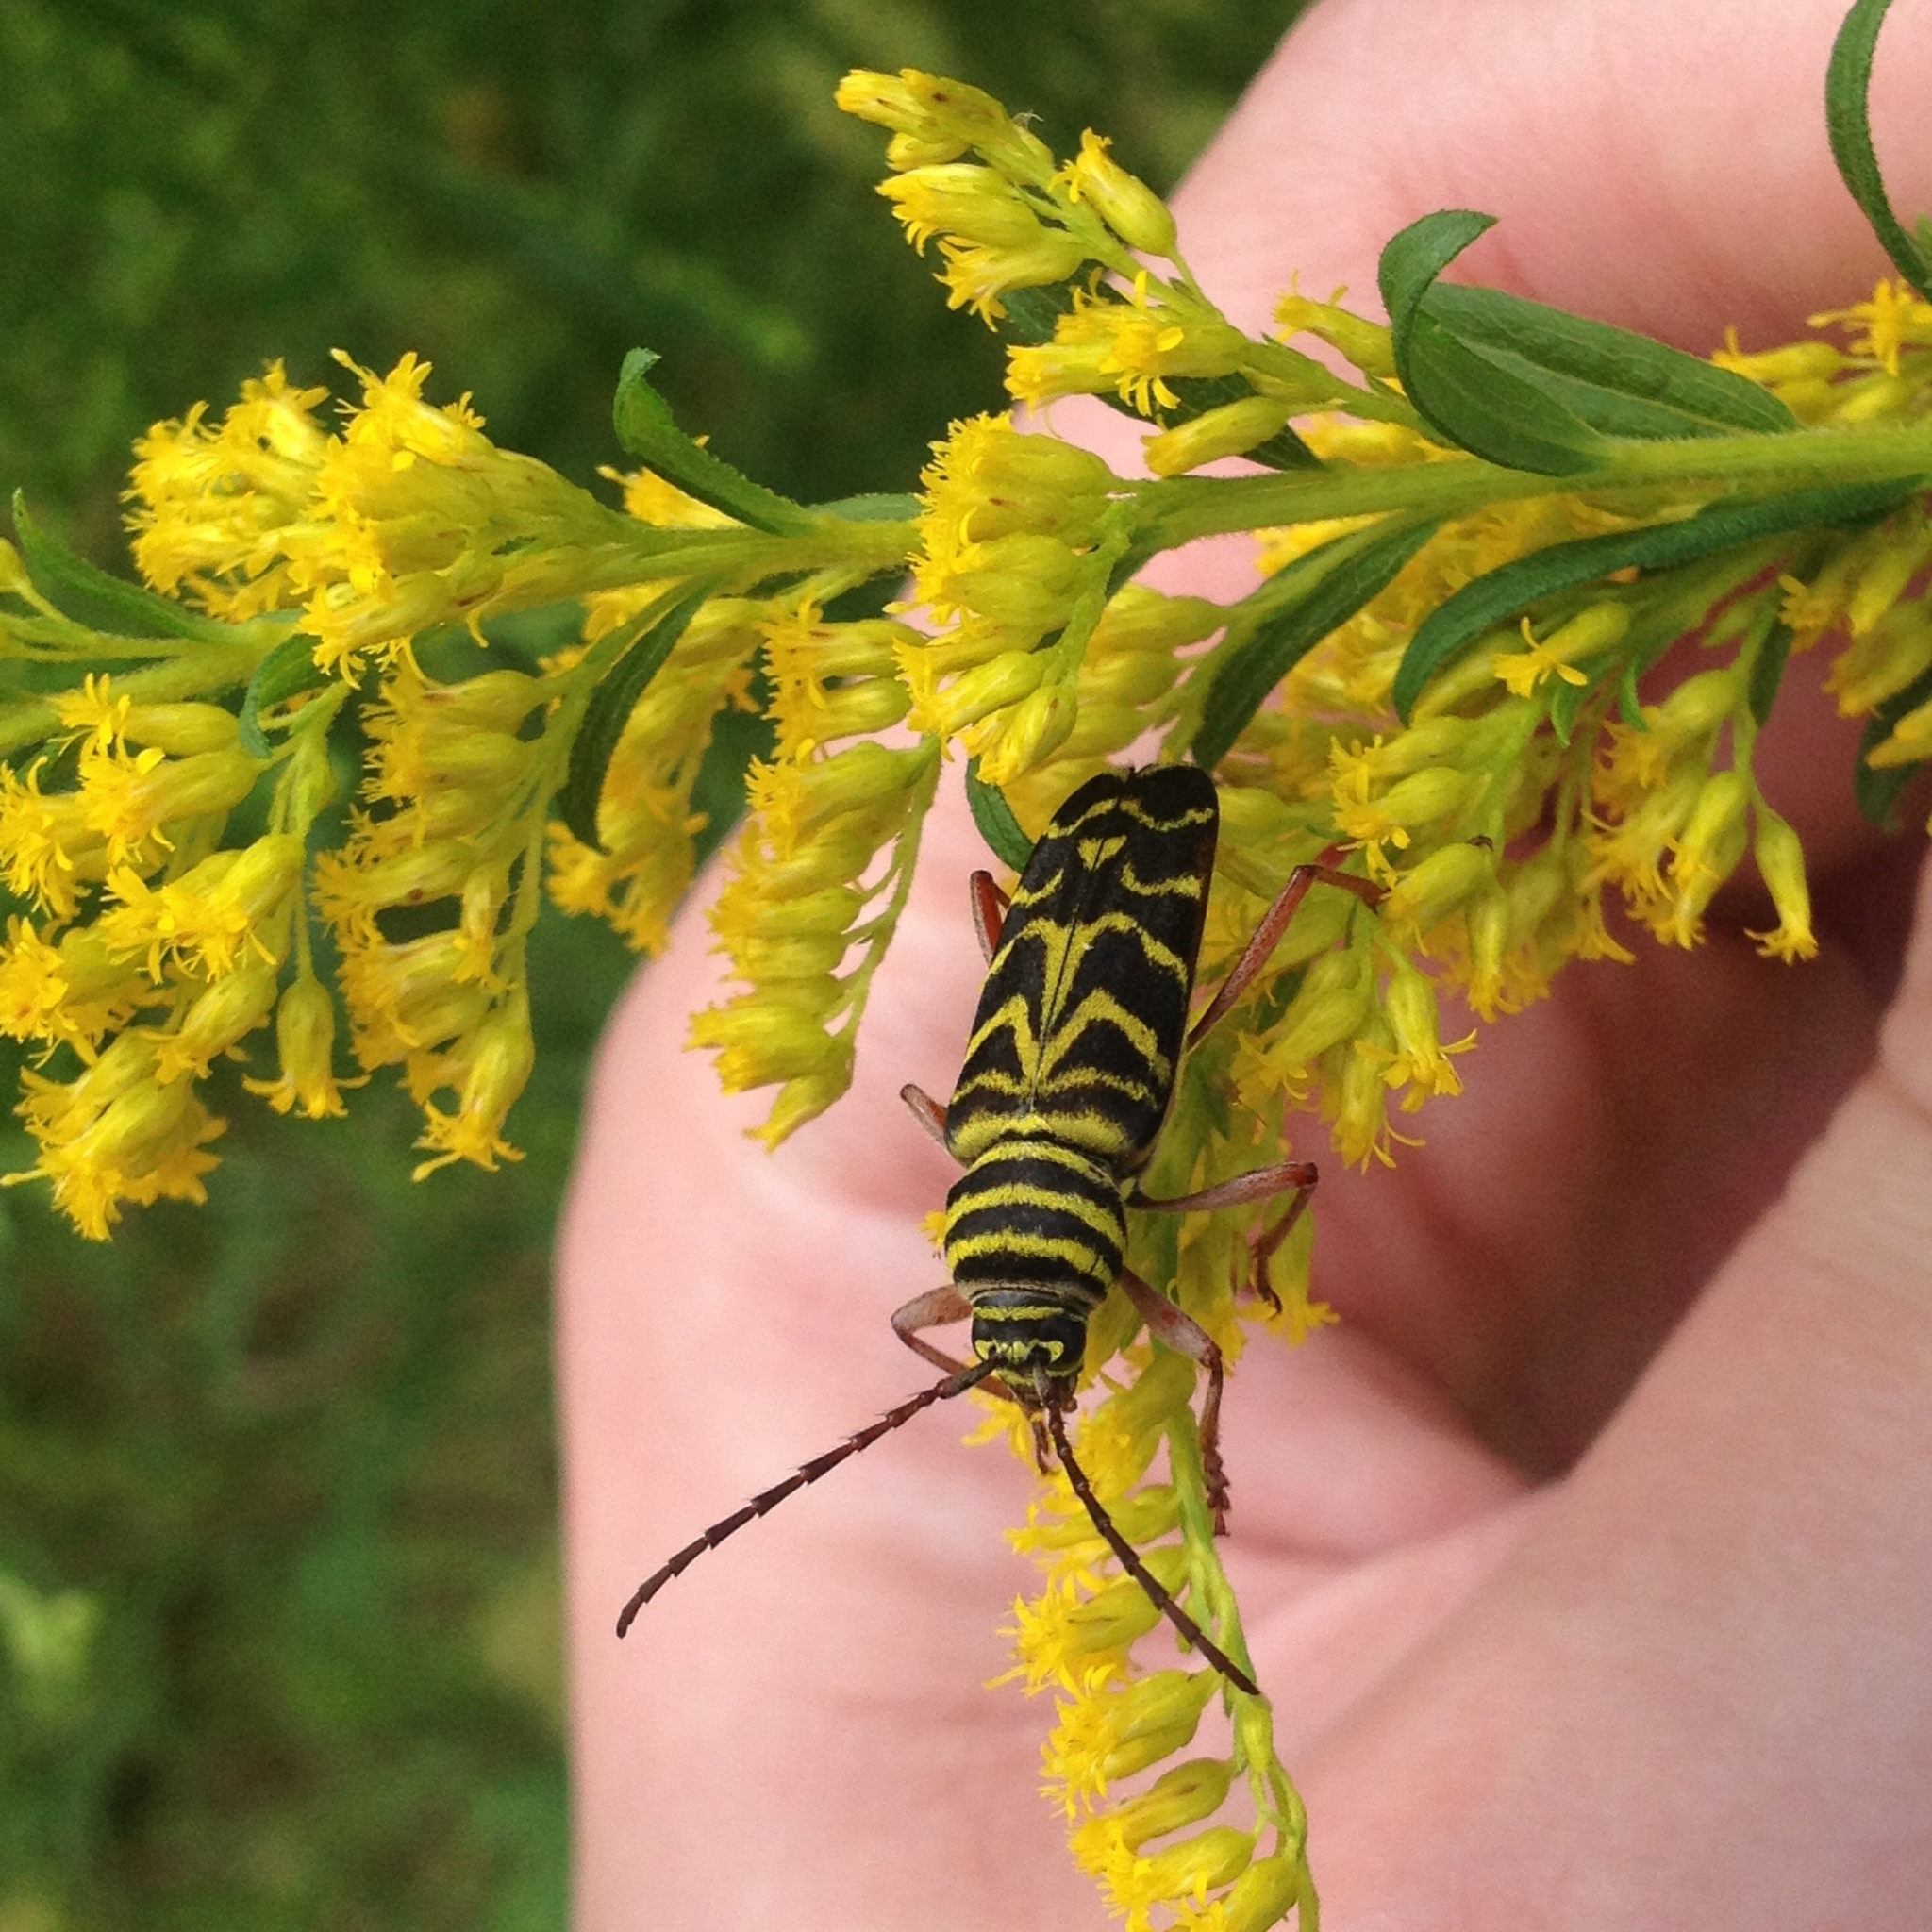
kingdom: Animalia
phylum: Arthropoda
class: Insecta
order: Coleoptera
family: Cerambycidae
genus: Megacyllene
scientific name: Megacyllene robiniae
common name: Locust borer
